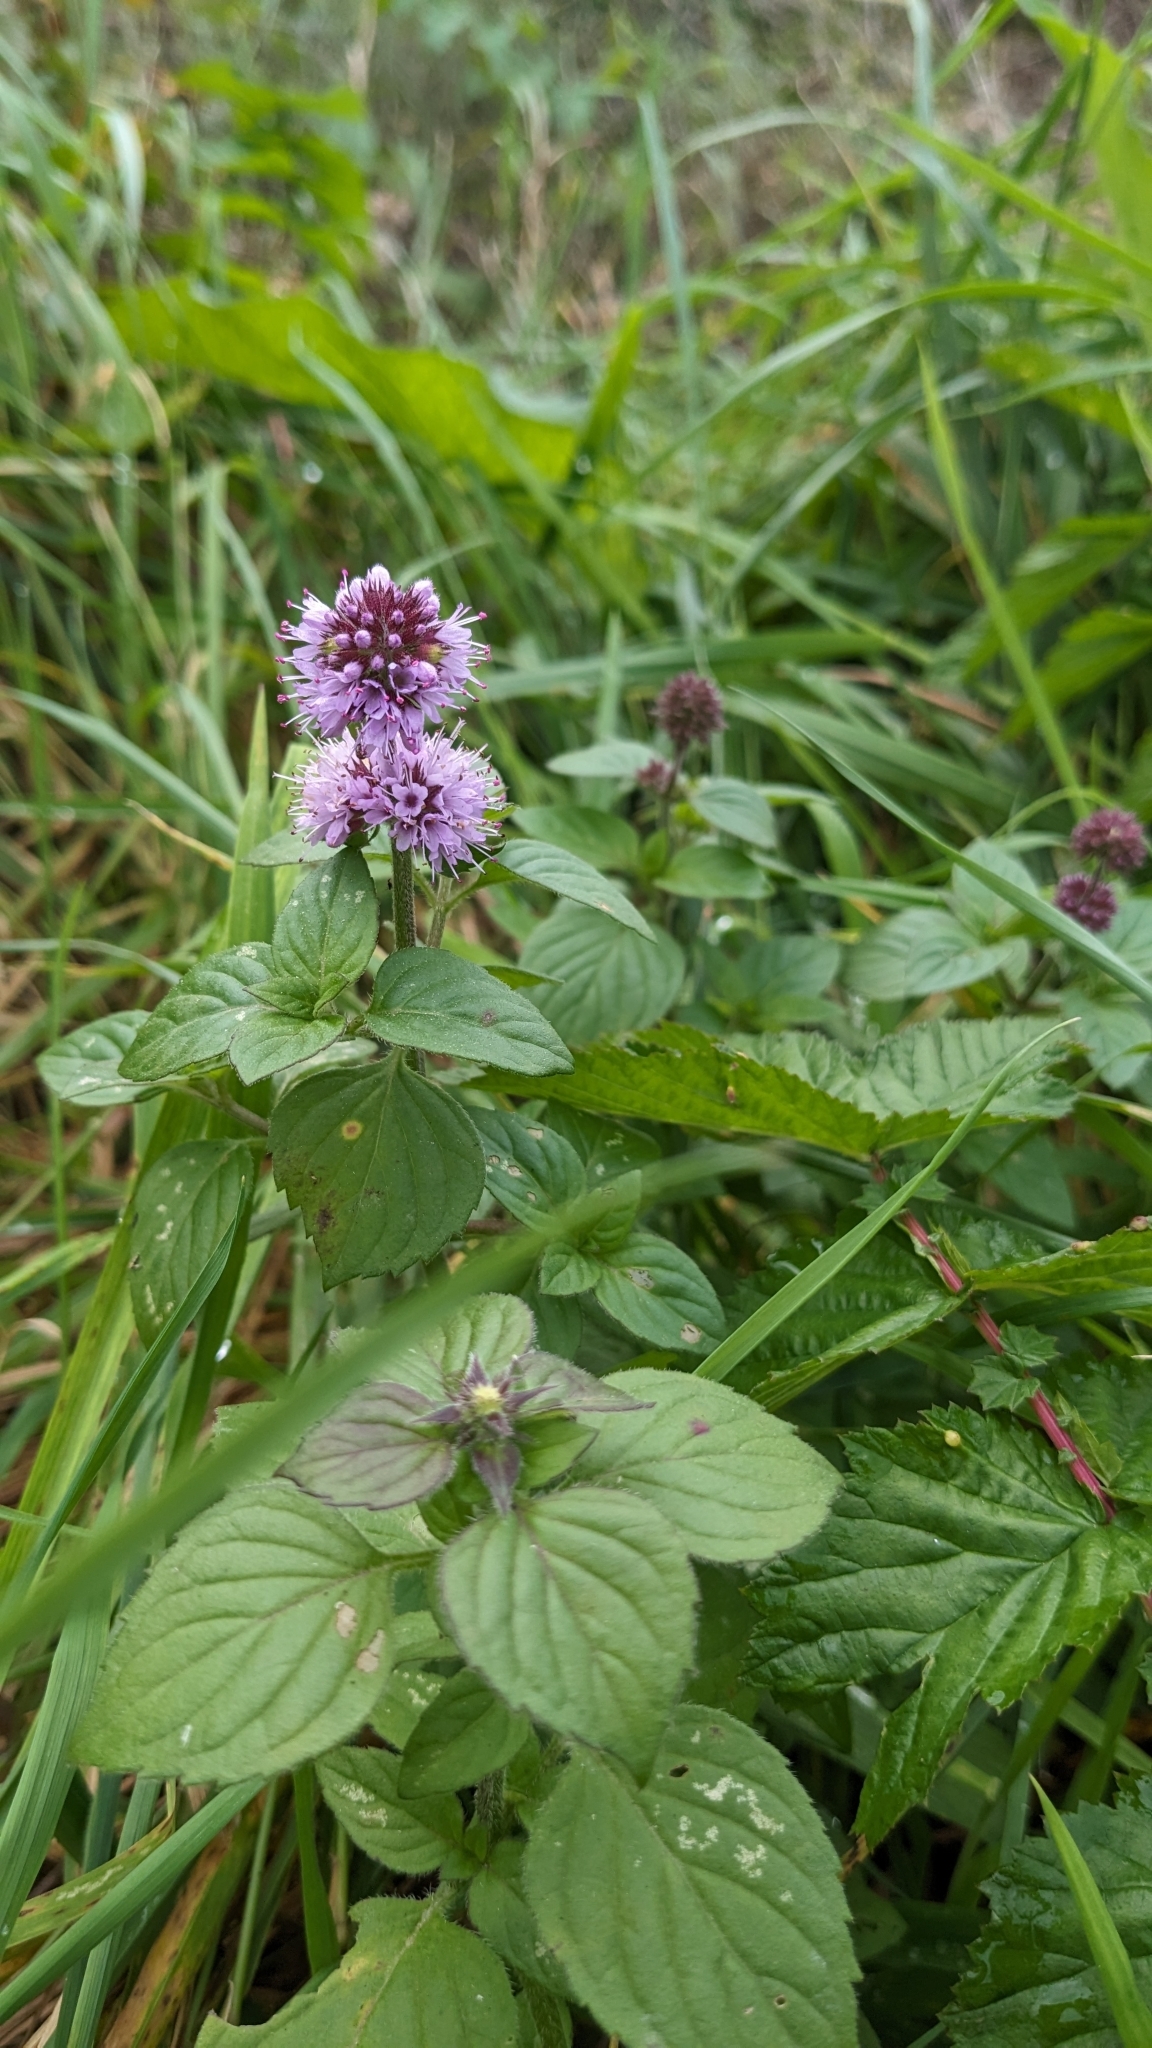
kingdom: Plantae
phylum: Tracheophyta
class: Magnoliopsida
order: Lamiales
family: Lamiaceae
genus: Mentha
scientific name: Mentha aquatica
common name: Water mint
